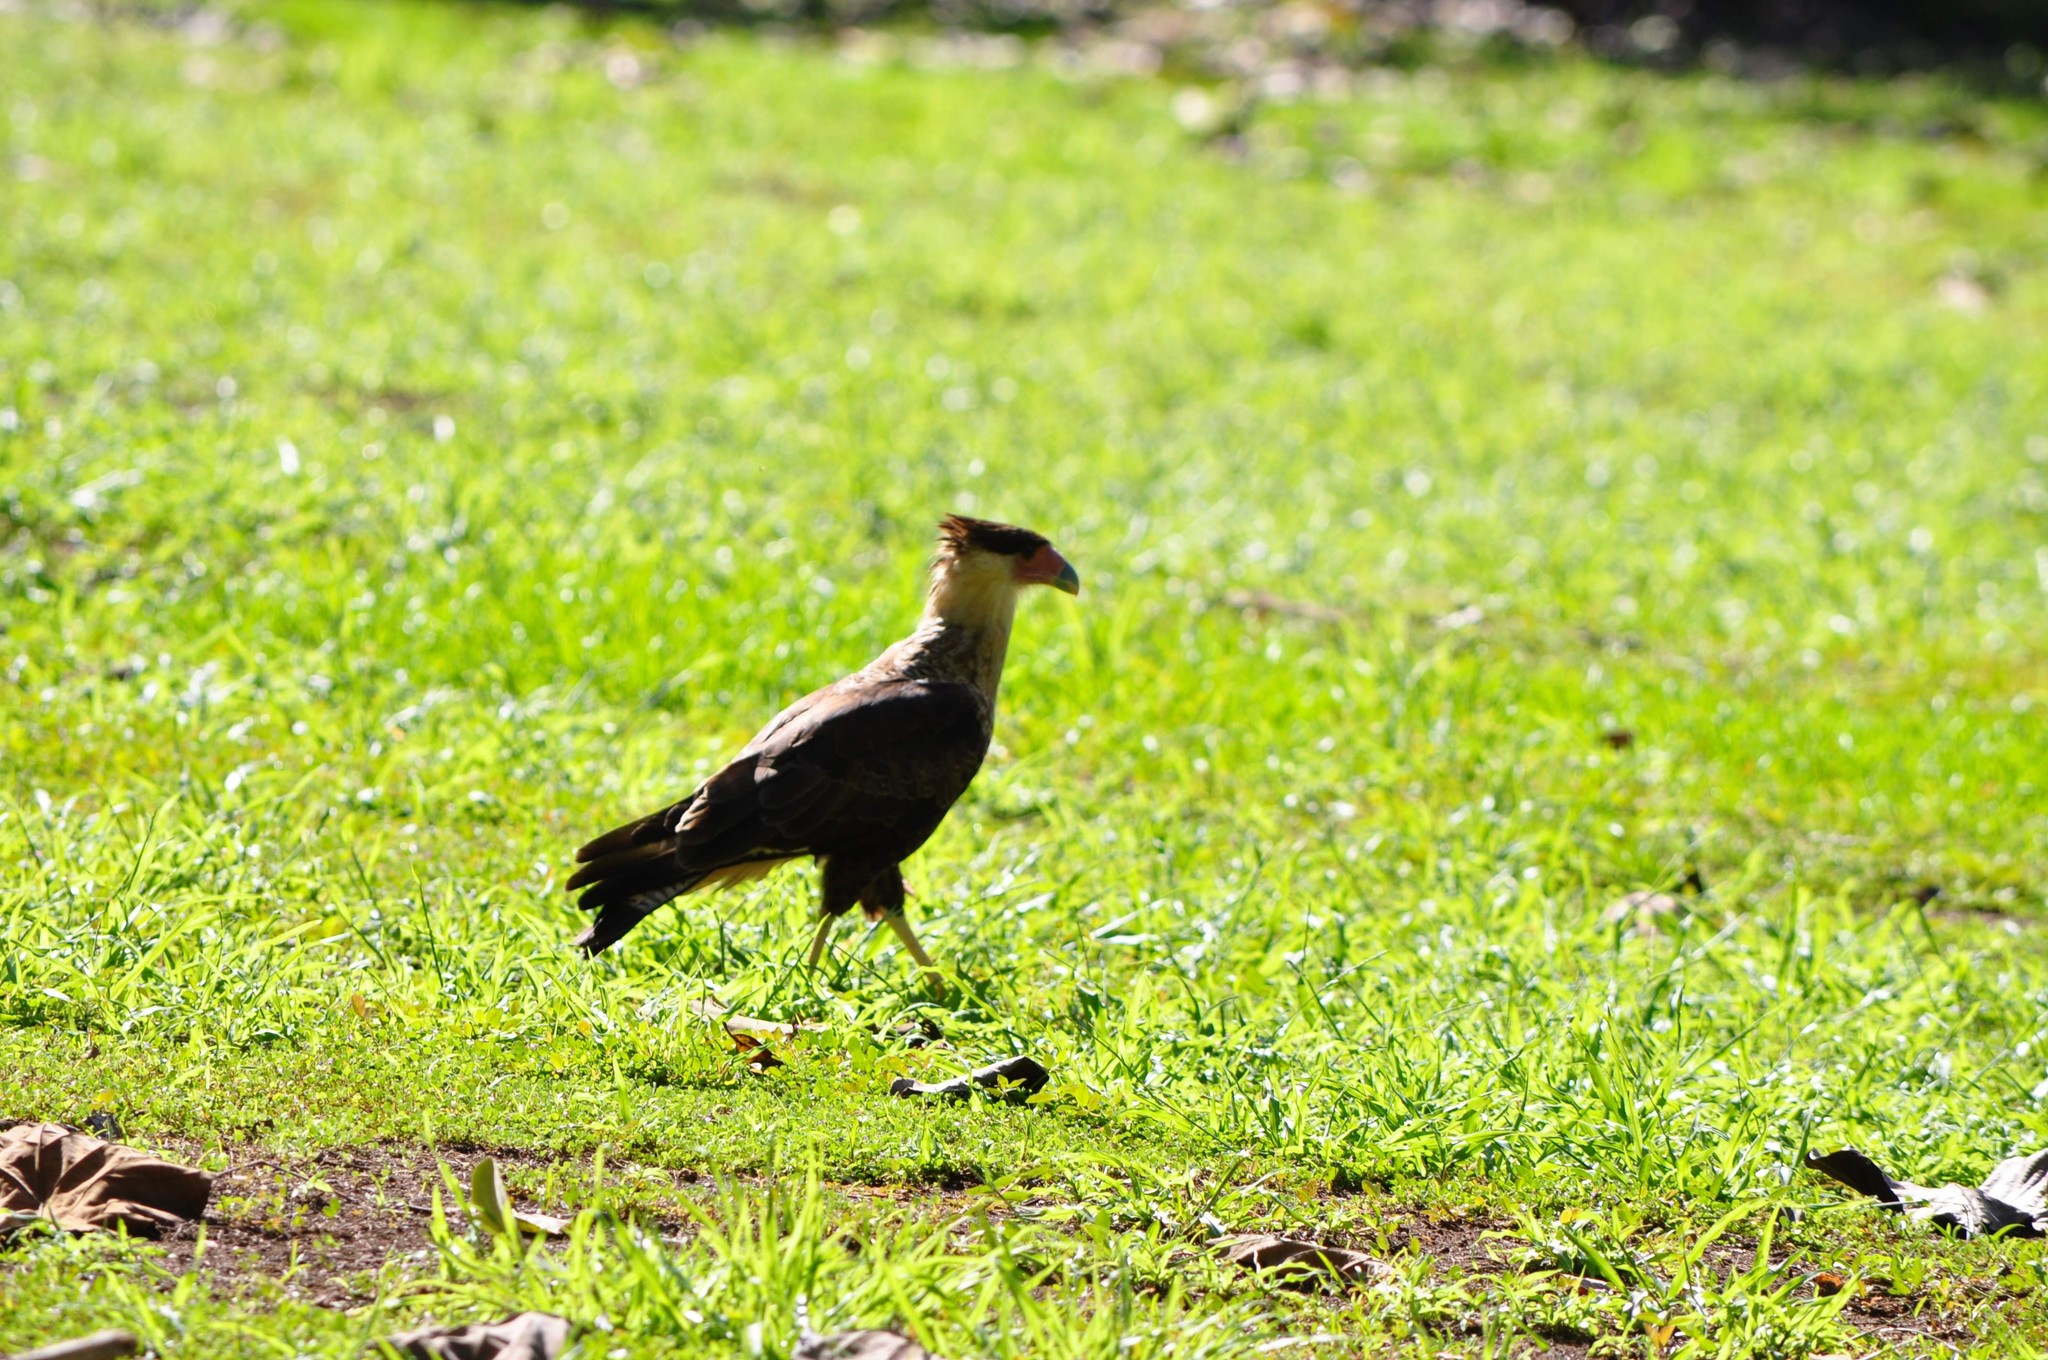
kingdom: Animalia
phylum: Chordata
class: Aves
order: Falconiformes
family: Falconidae
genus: Caracara
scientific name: Caracara plancus
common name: Southern caracara
